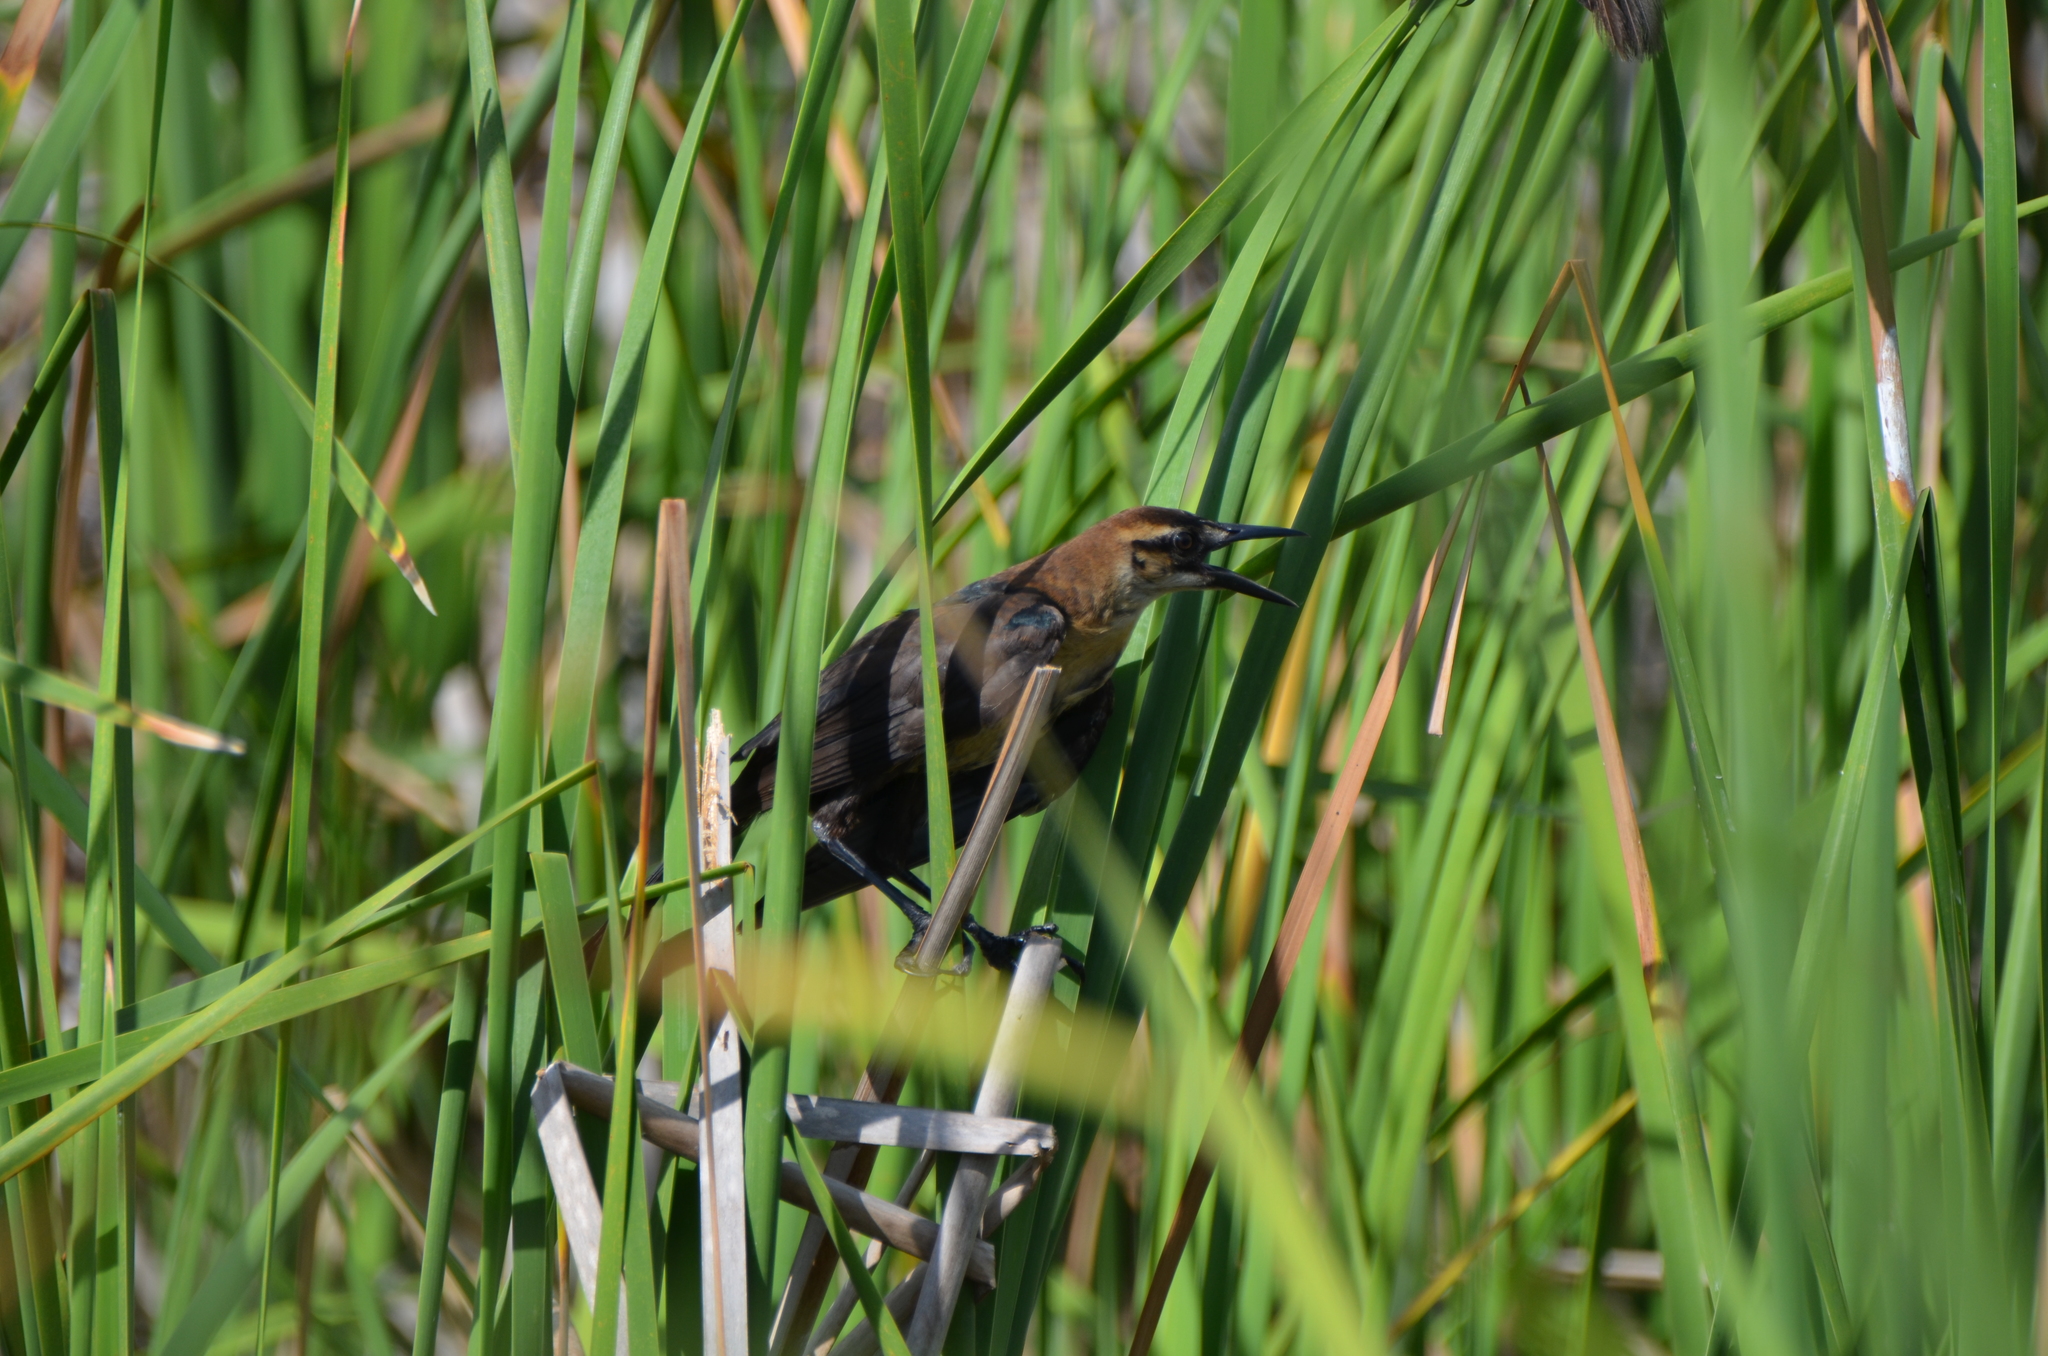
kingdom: Animalia
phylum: Chordata
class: Aves
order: Passeriformes
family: Icteridae
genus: Quiscalus
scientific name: Quiscalus major
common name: Boat-tailed grackle
